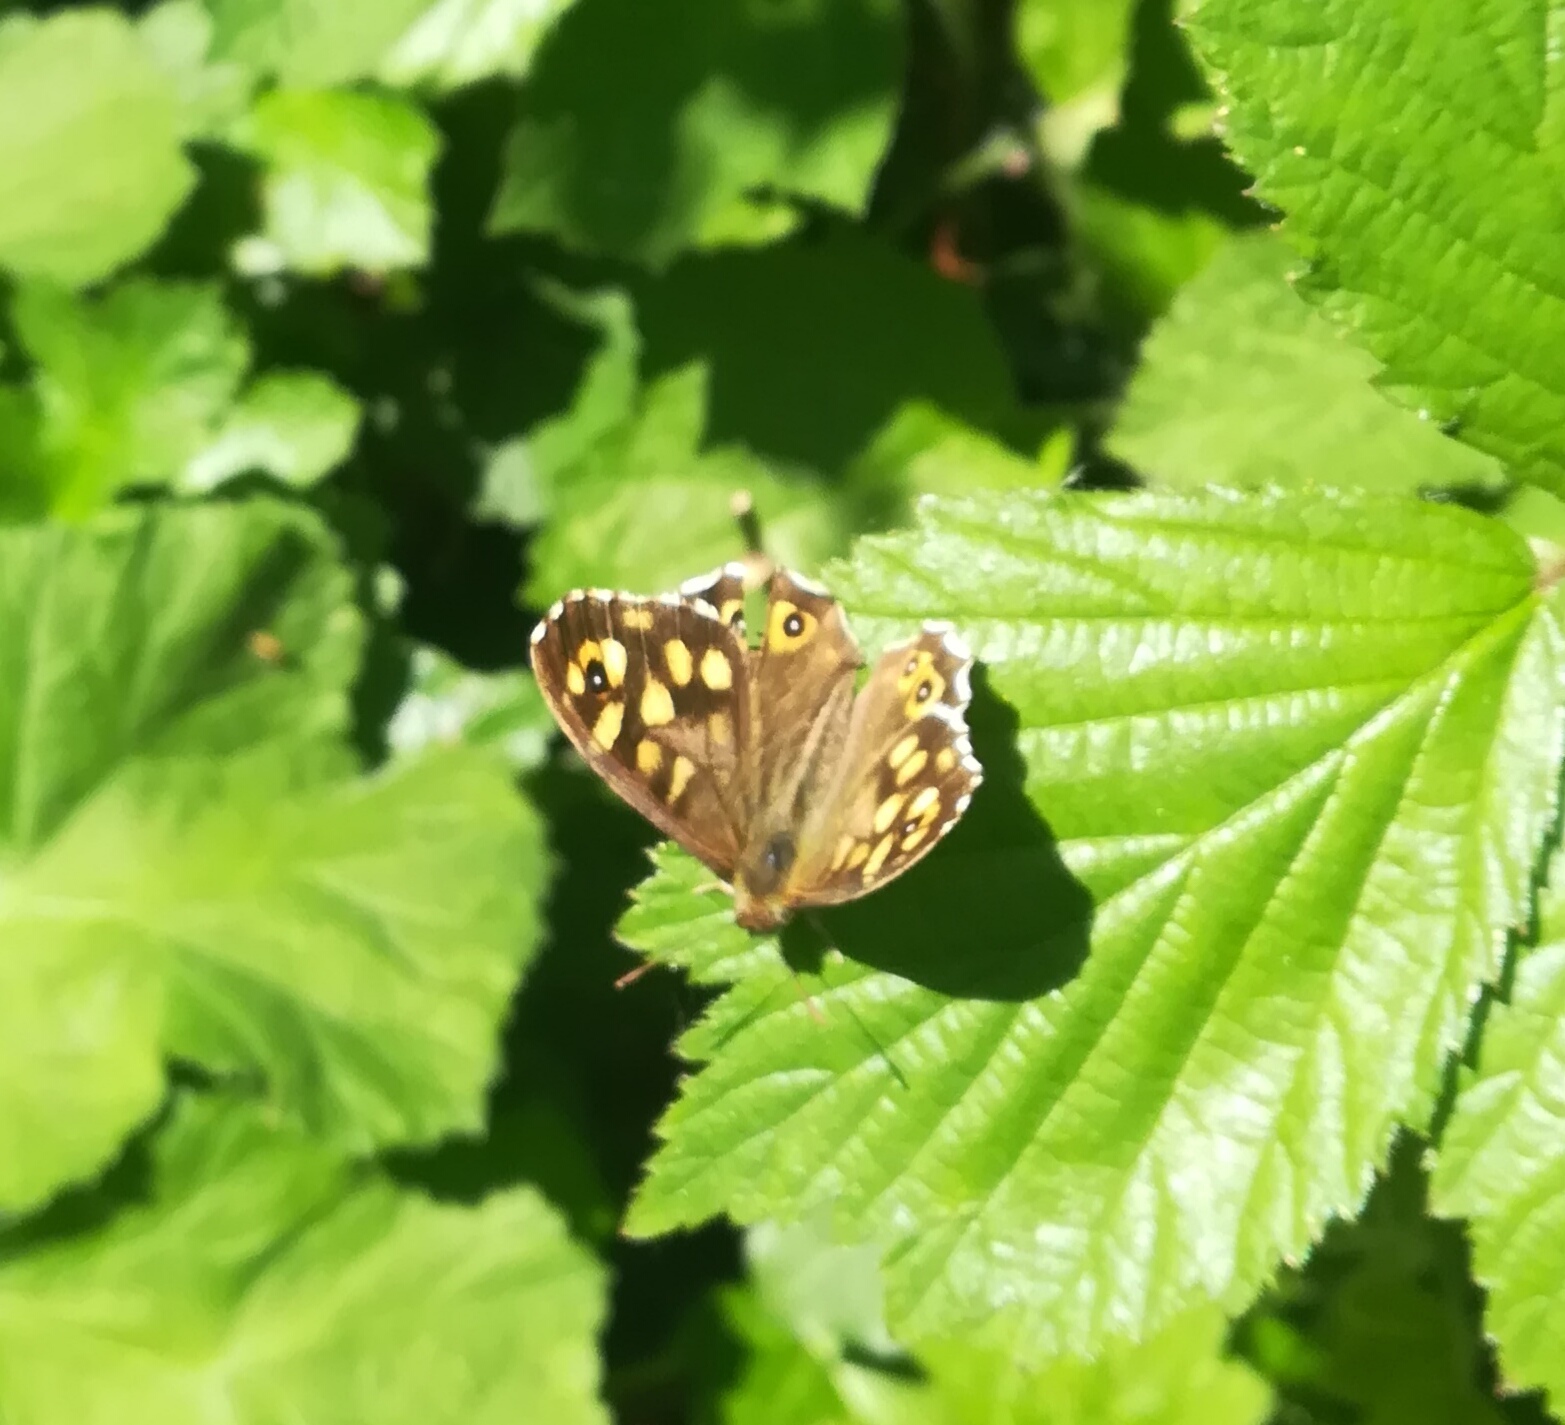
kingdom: Animalia
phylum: Arthropoda
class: Insecta
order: Lepidoptera
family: Nymphalidae
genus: Pararge
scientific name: Pararge aegeria
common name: Speckled wood
